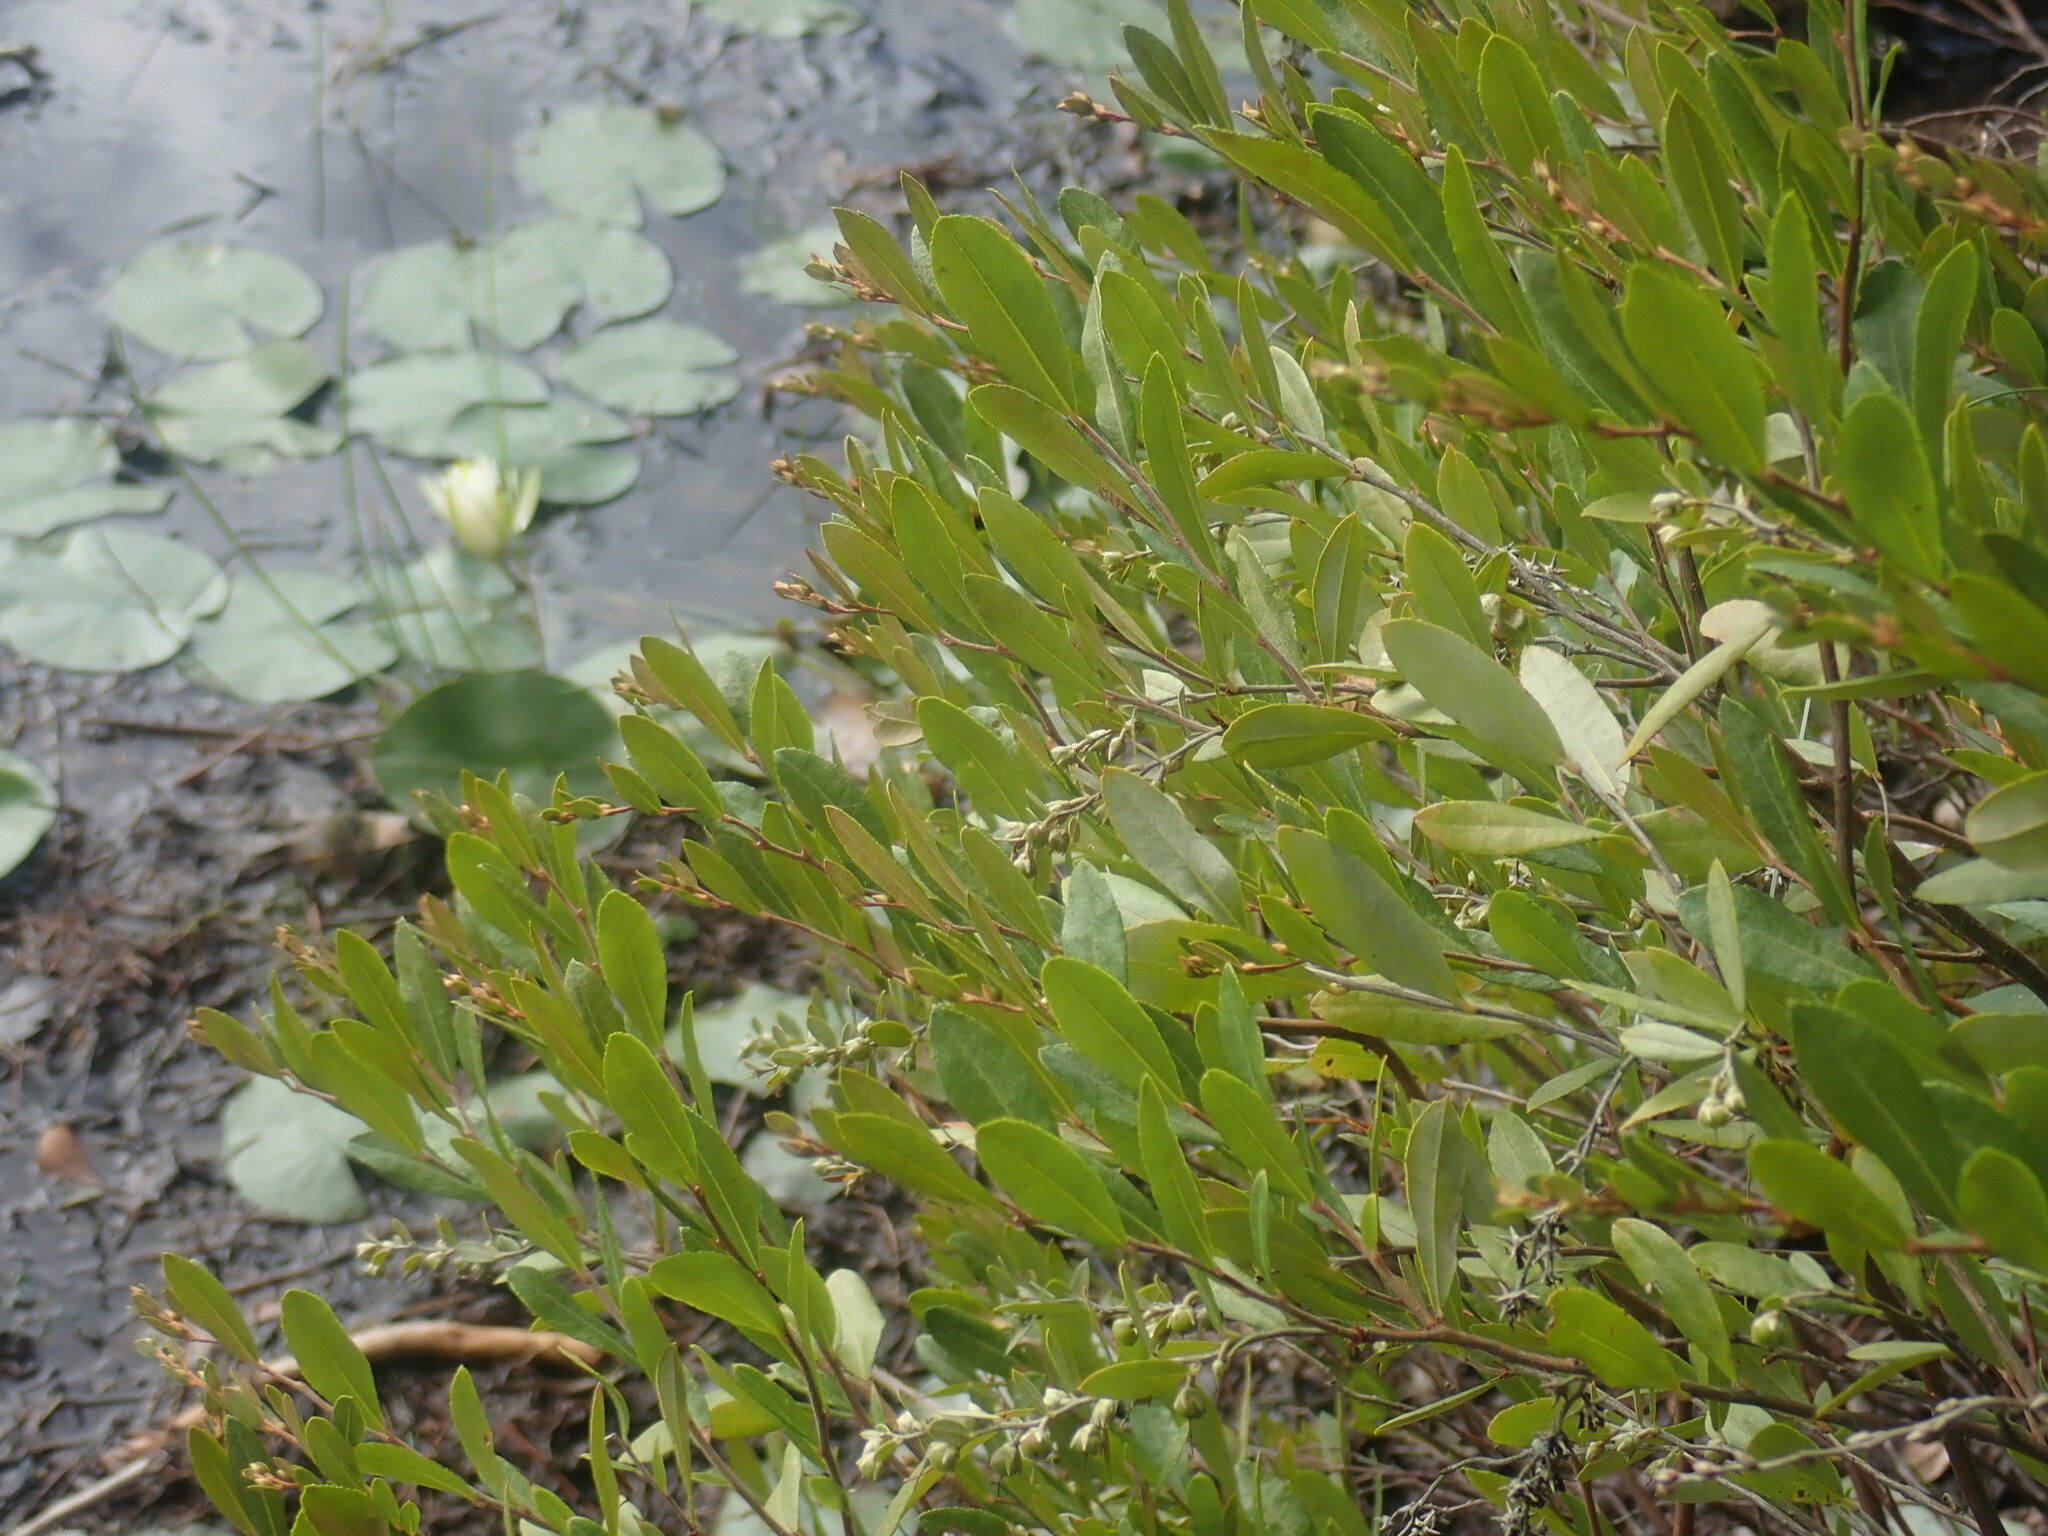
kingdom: Plantae
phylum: Tracheophyta
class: Magnoliopsida
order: Ericales
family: Ericaceae
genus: Chamaedaphne
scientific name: Chamaedaphne calyculata
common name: Leatherleaf
